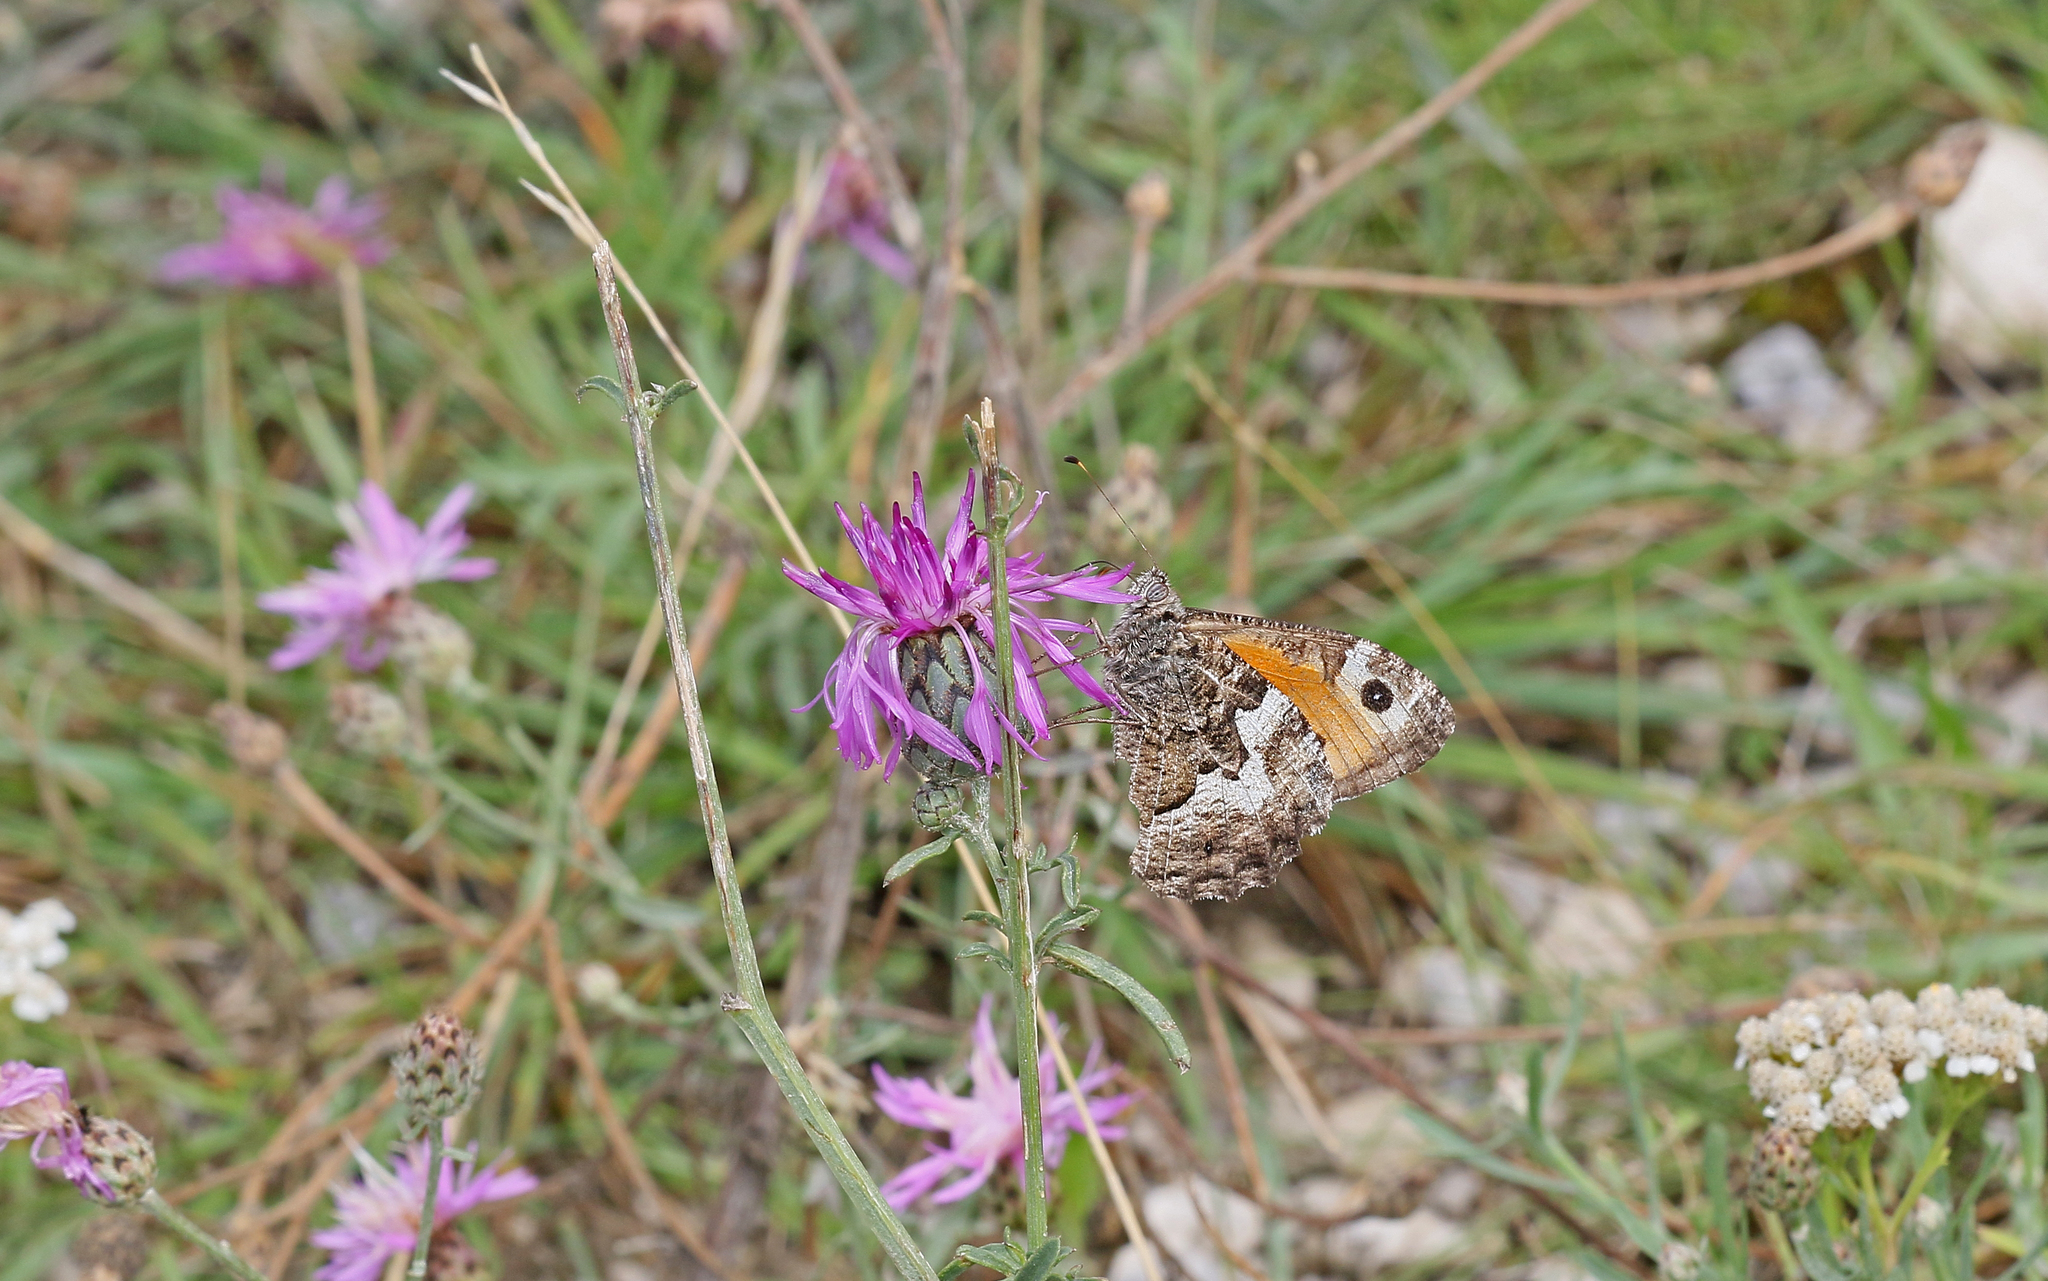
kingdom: Animalia
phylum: Arthropoda
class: Insecta
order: Lepidoptera
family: Nymphalidae
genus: Hipparchia
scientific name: Hipparchia semele
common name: Grayling
